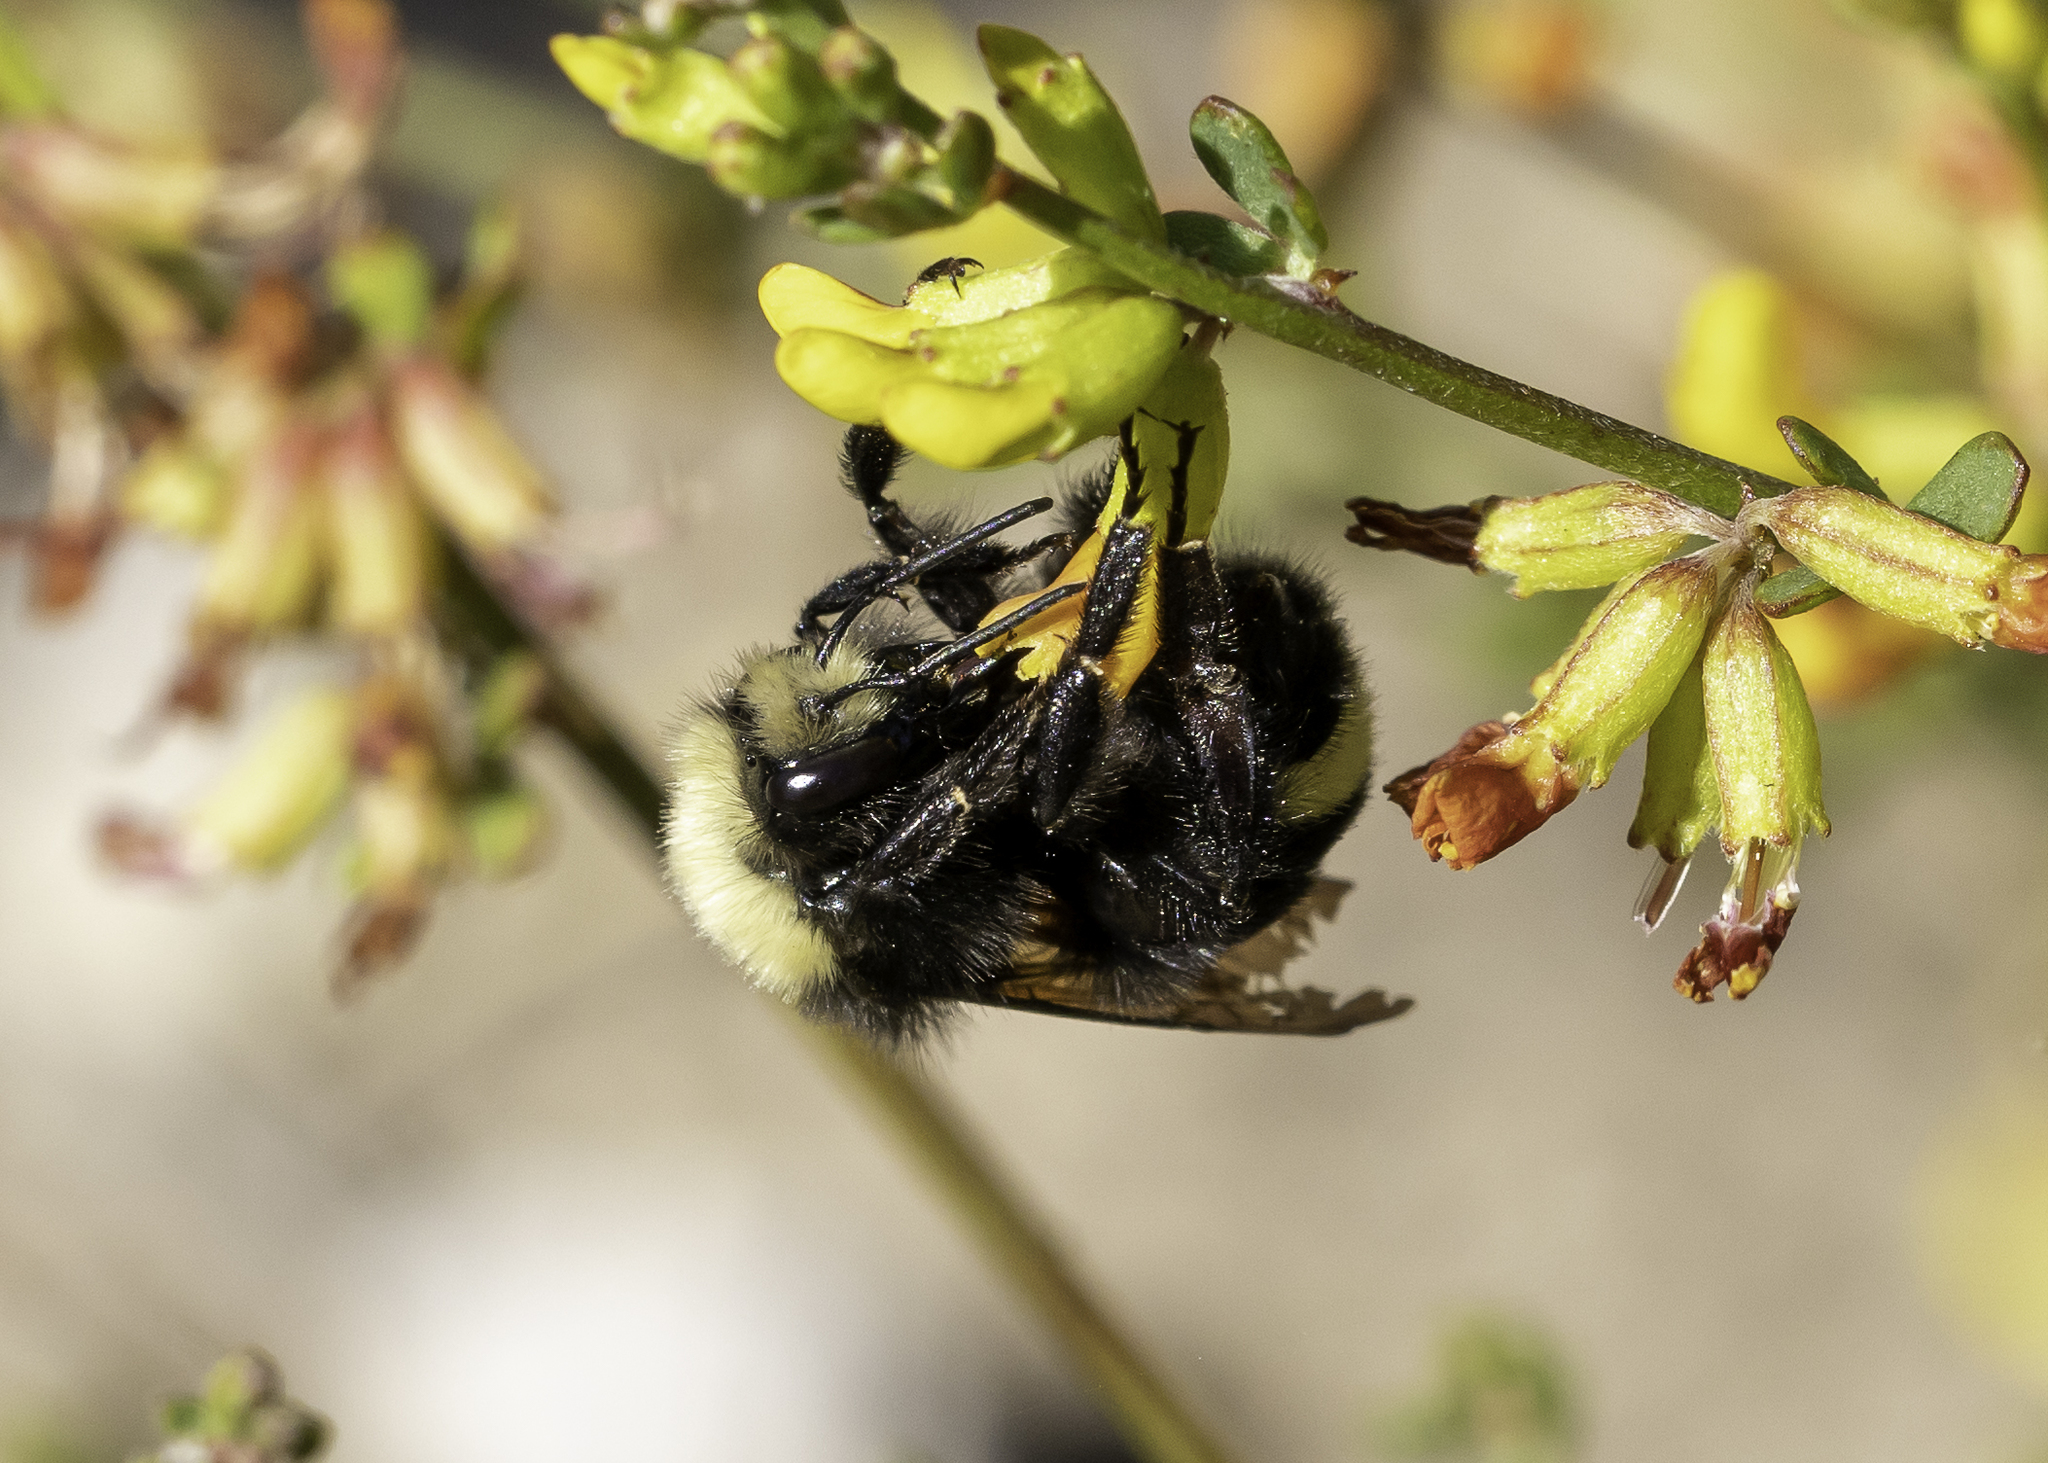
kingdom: Animalia
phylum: Arthropoda
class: Insecta
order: Hymenoptera
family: Apidae
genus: Bombus
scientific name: Bombus vosnesenskii
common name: Vosnesensky bumble bee
